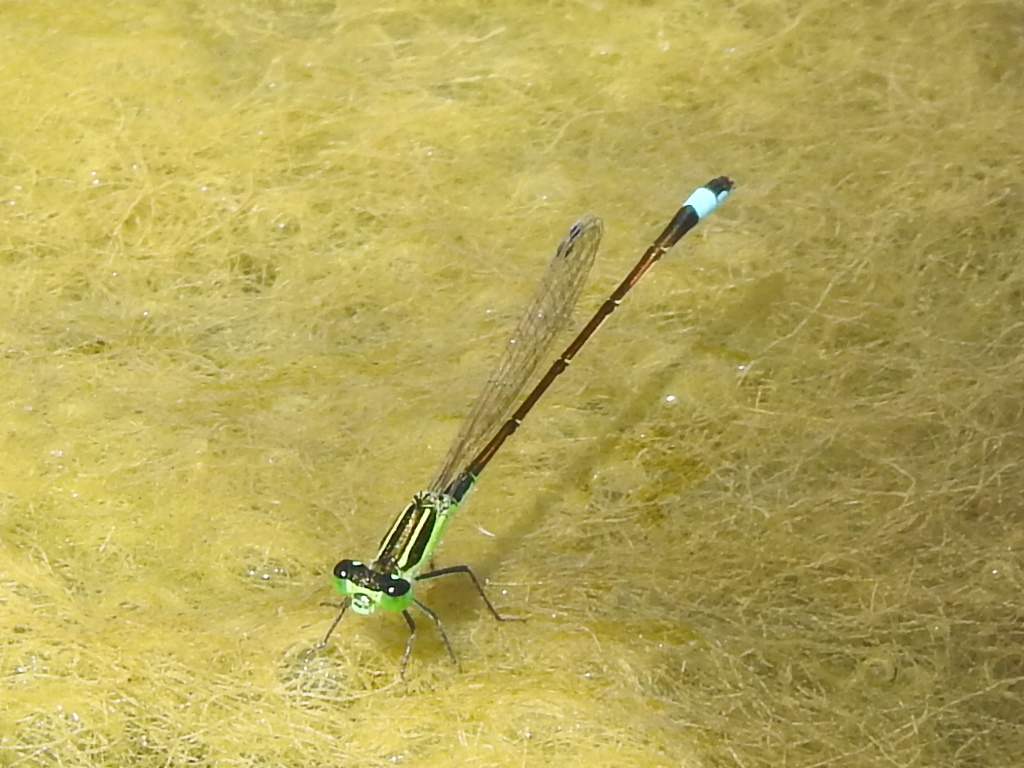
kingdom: Animalia
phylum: Arthropoda
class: Insecta
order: Odonata
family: Coenagrionidae
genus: Ischnura
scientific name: Ischnura ramburii
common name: Rambur's forktail
